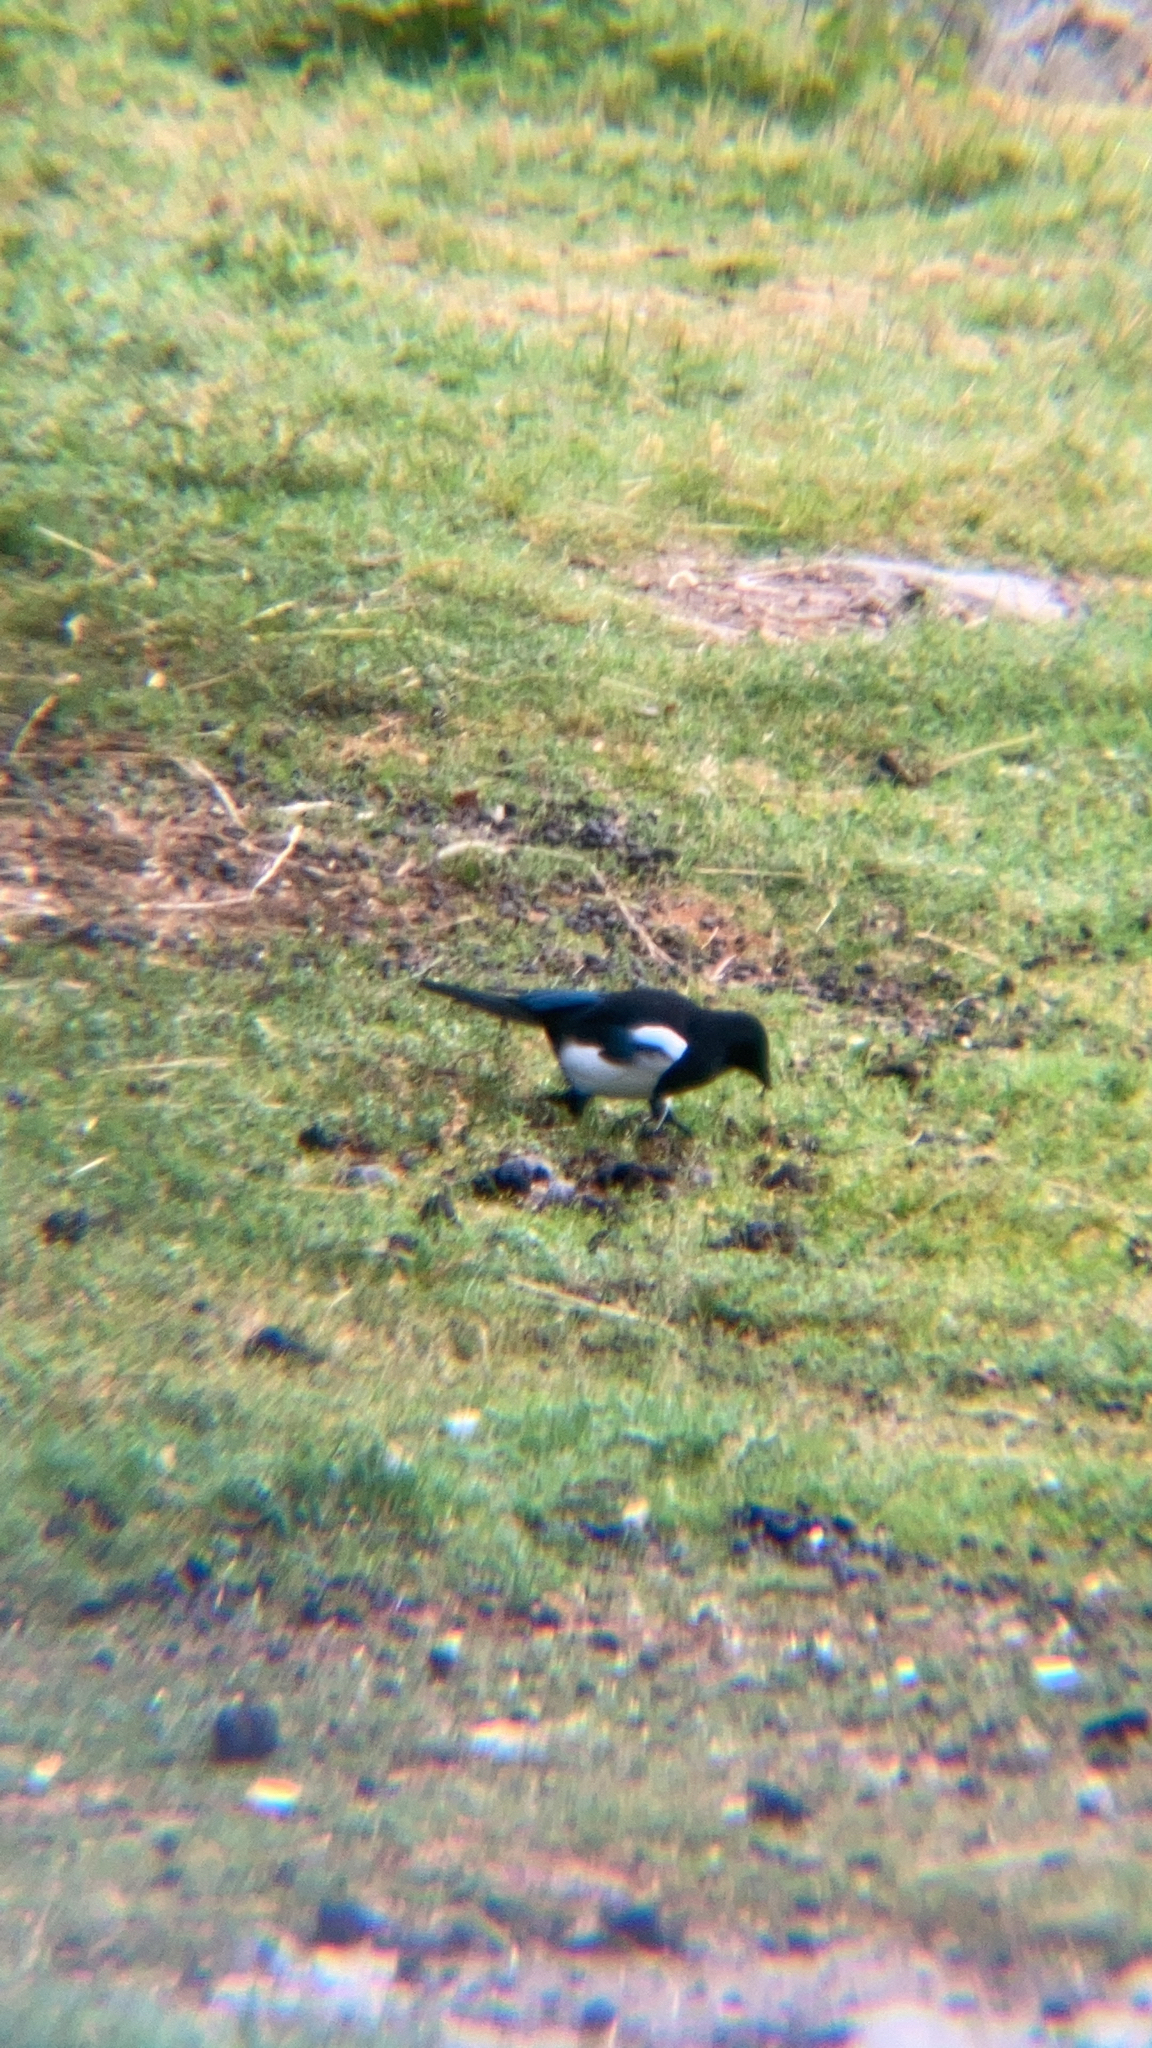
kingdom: Animalia
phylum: Chordata
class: Aves
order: Passeriformes
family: Corvidae
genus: Pica
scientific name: Pica pica
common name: Eurasian magpie
